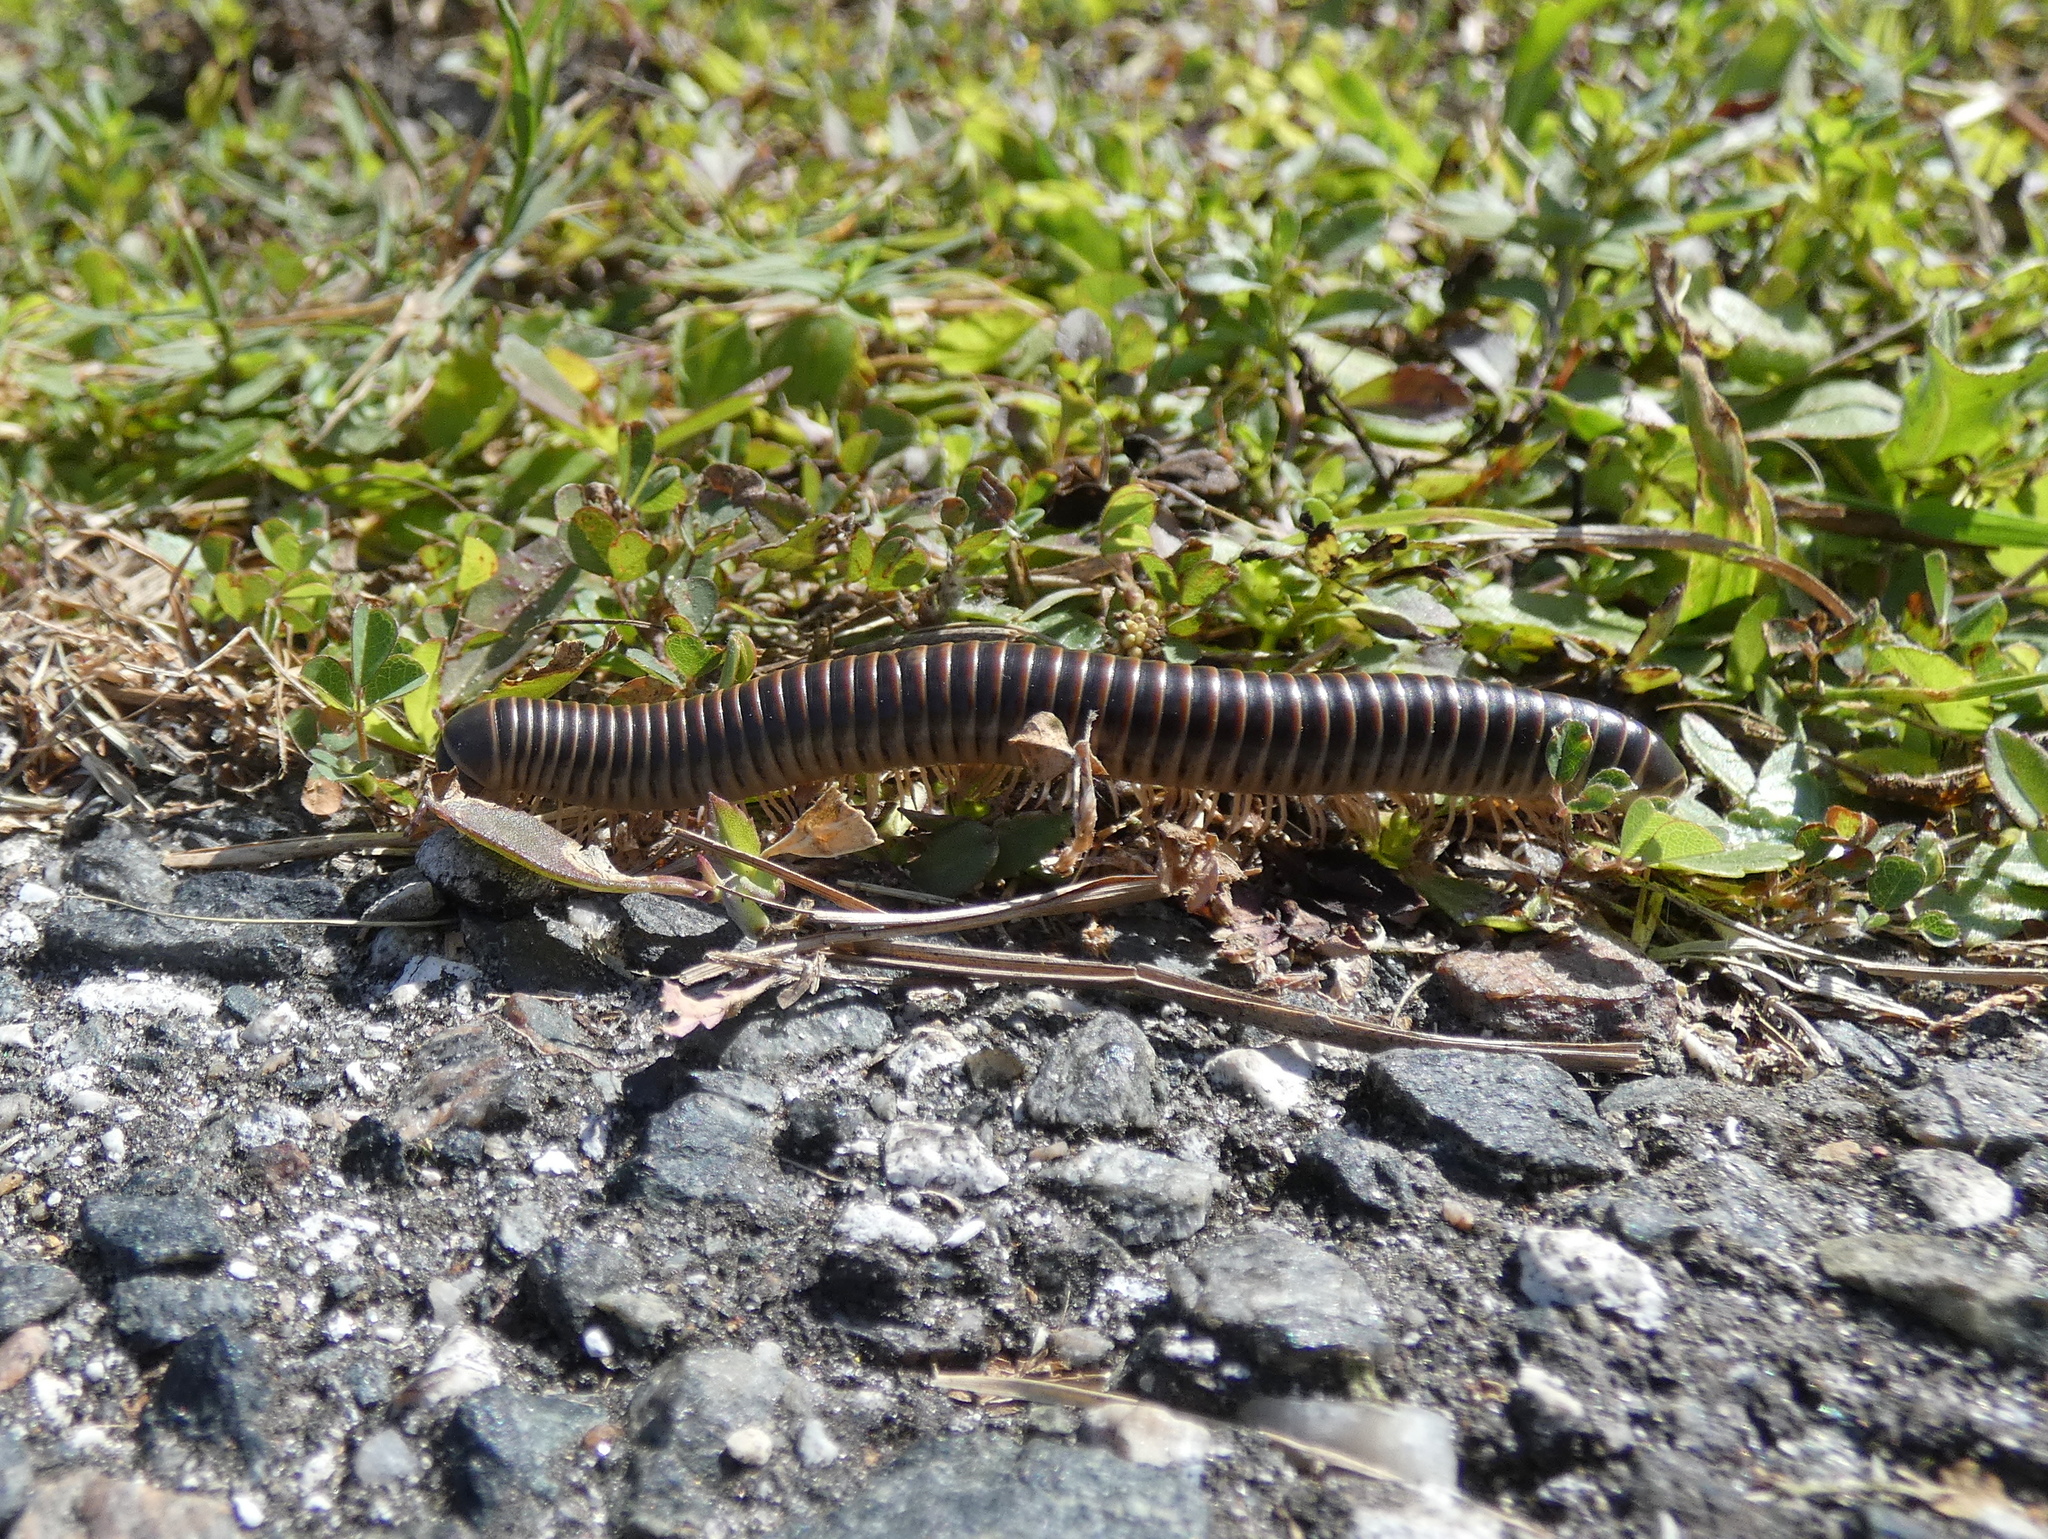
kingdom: Animalia
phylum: Arthropoda
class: Diplopoda
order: Spirobolida
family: Spirobolidae
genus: Chicobolus
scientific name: Chicobolus spinigerus
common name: Florida ivory millipede
